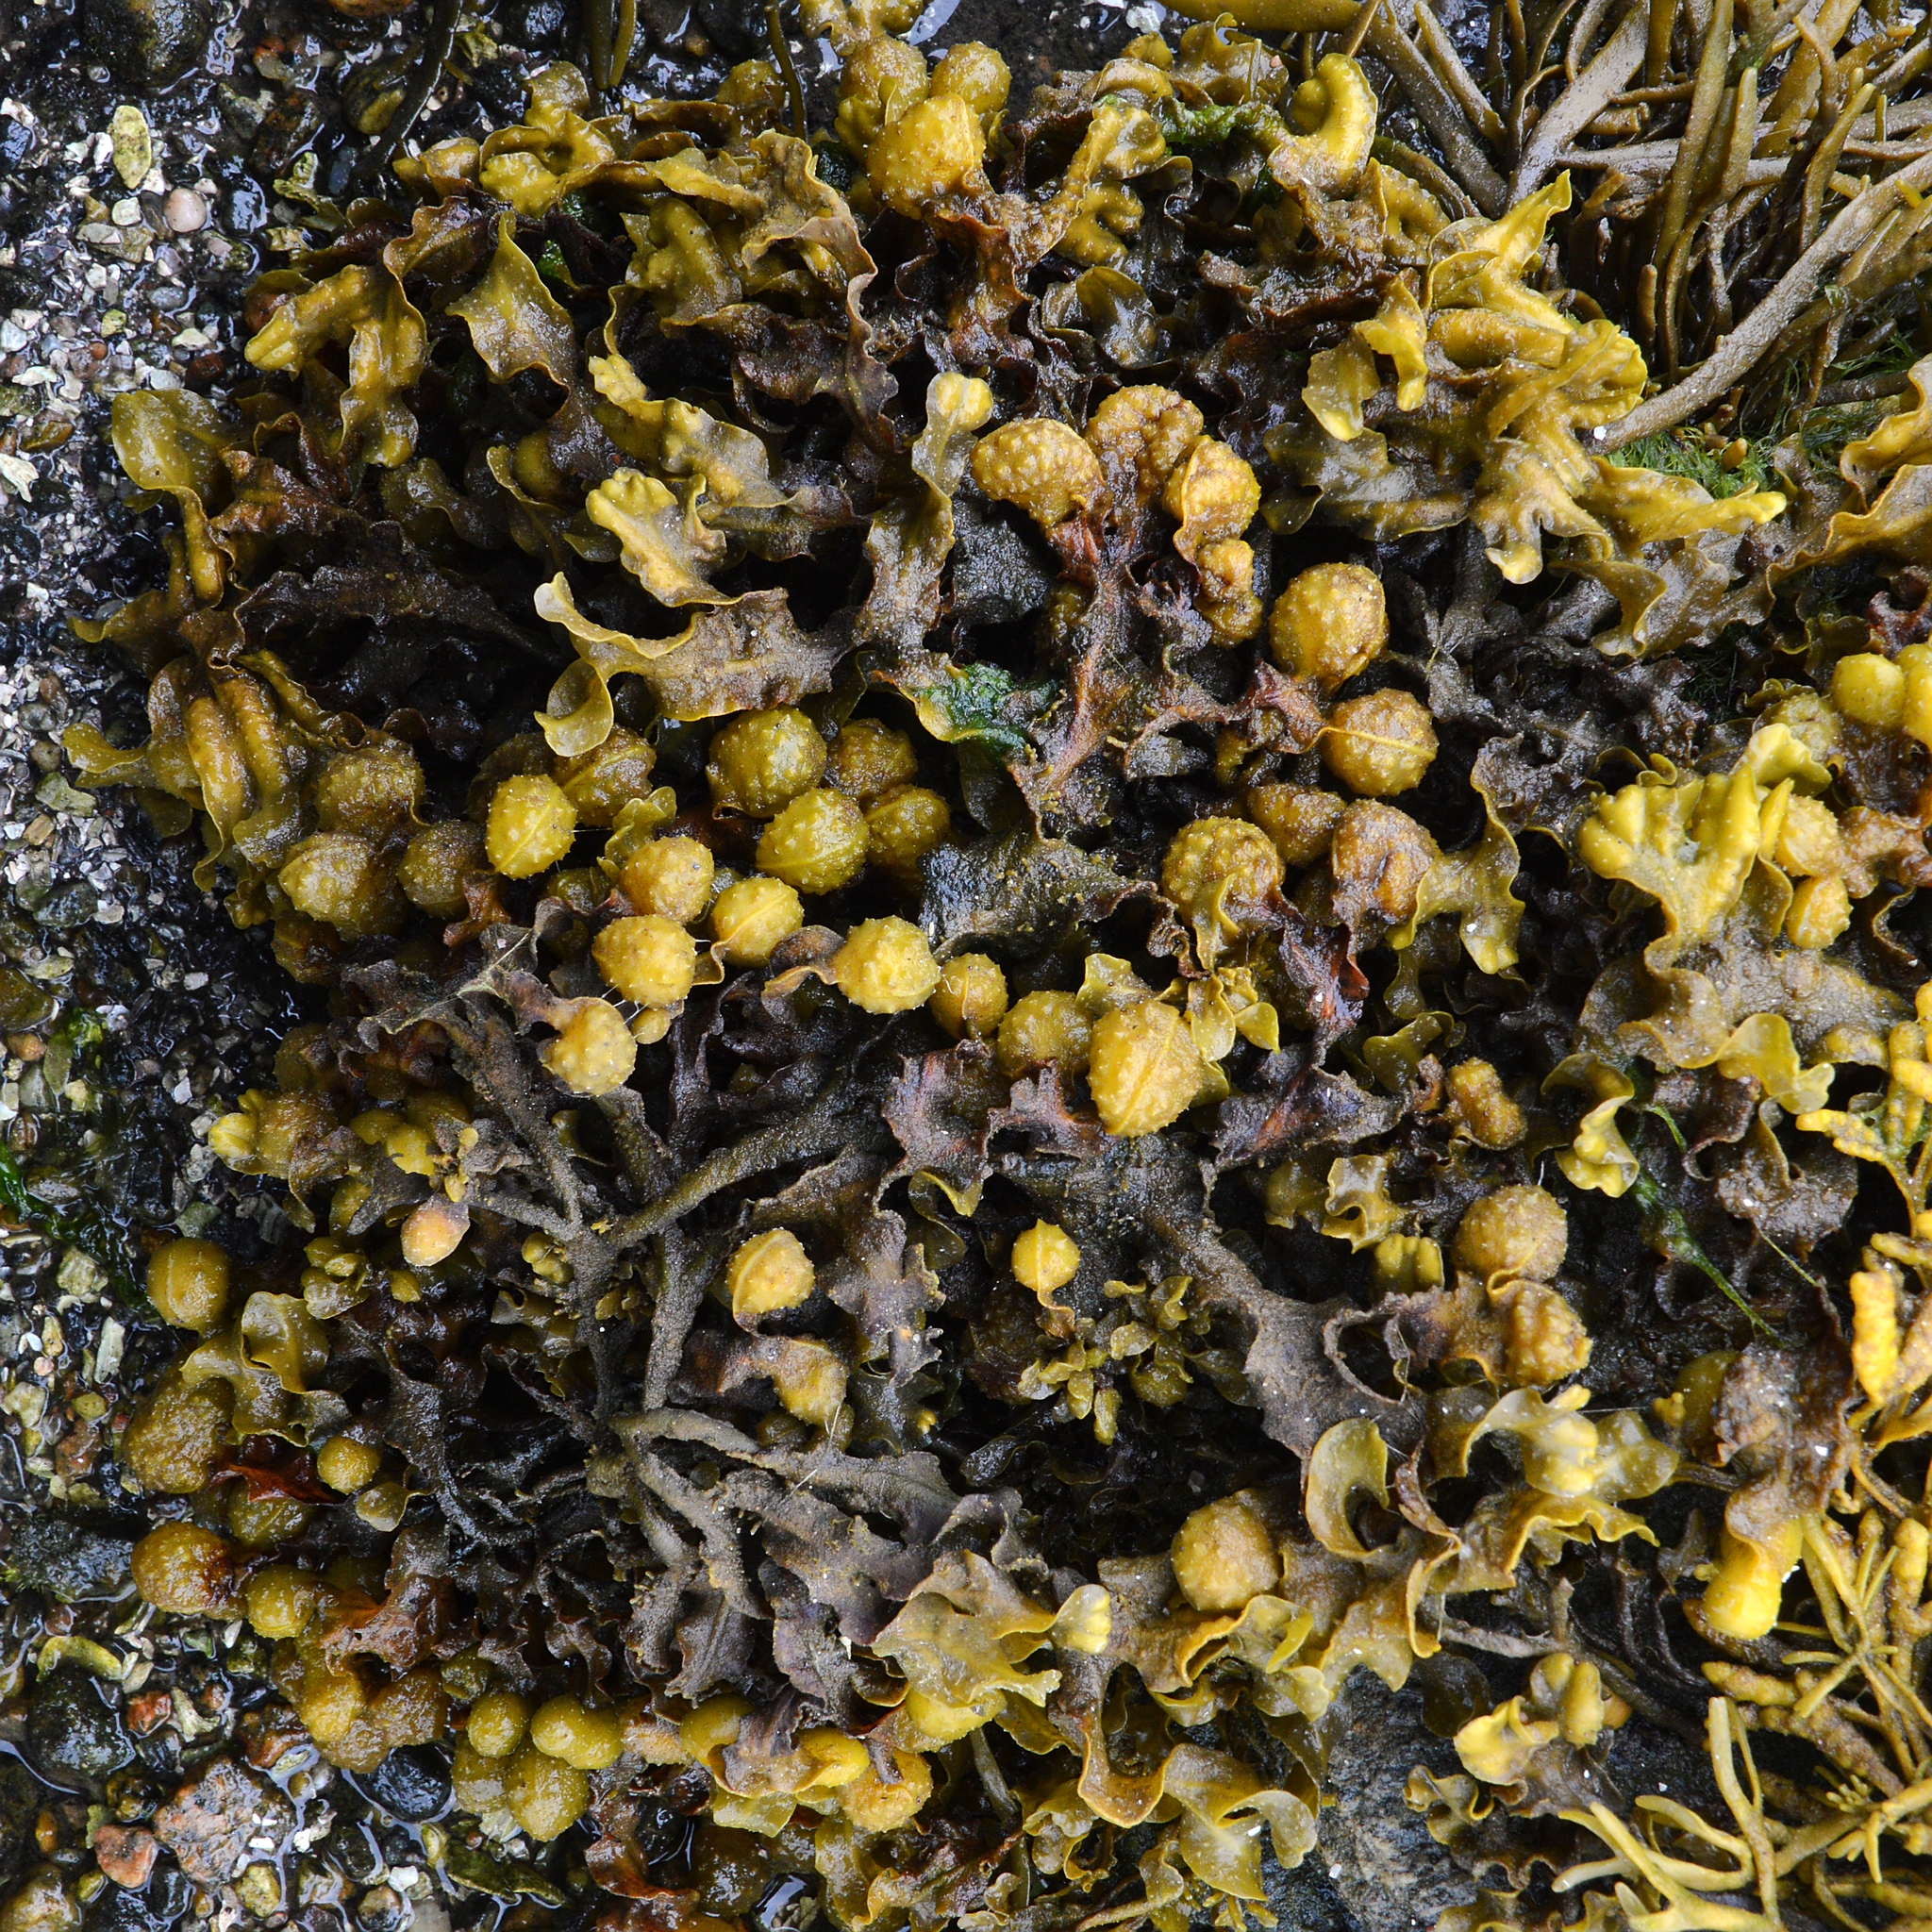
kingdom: Chromista
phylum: Ochrophyta
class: Phaeophyceae
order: Fucales
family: Fucaceae
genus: Fucus
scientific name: Fucus spiralis
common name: Spiral wrack
